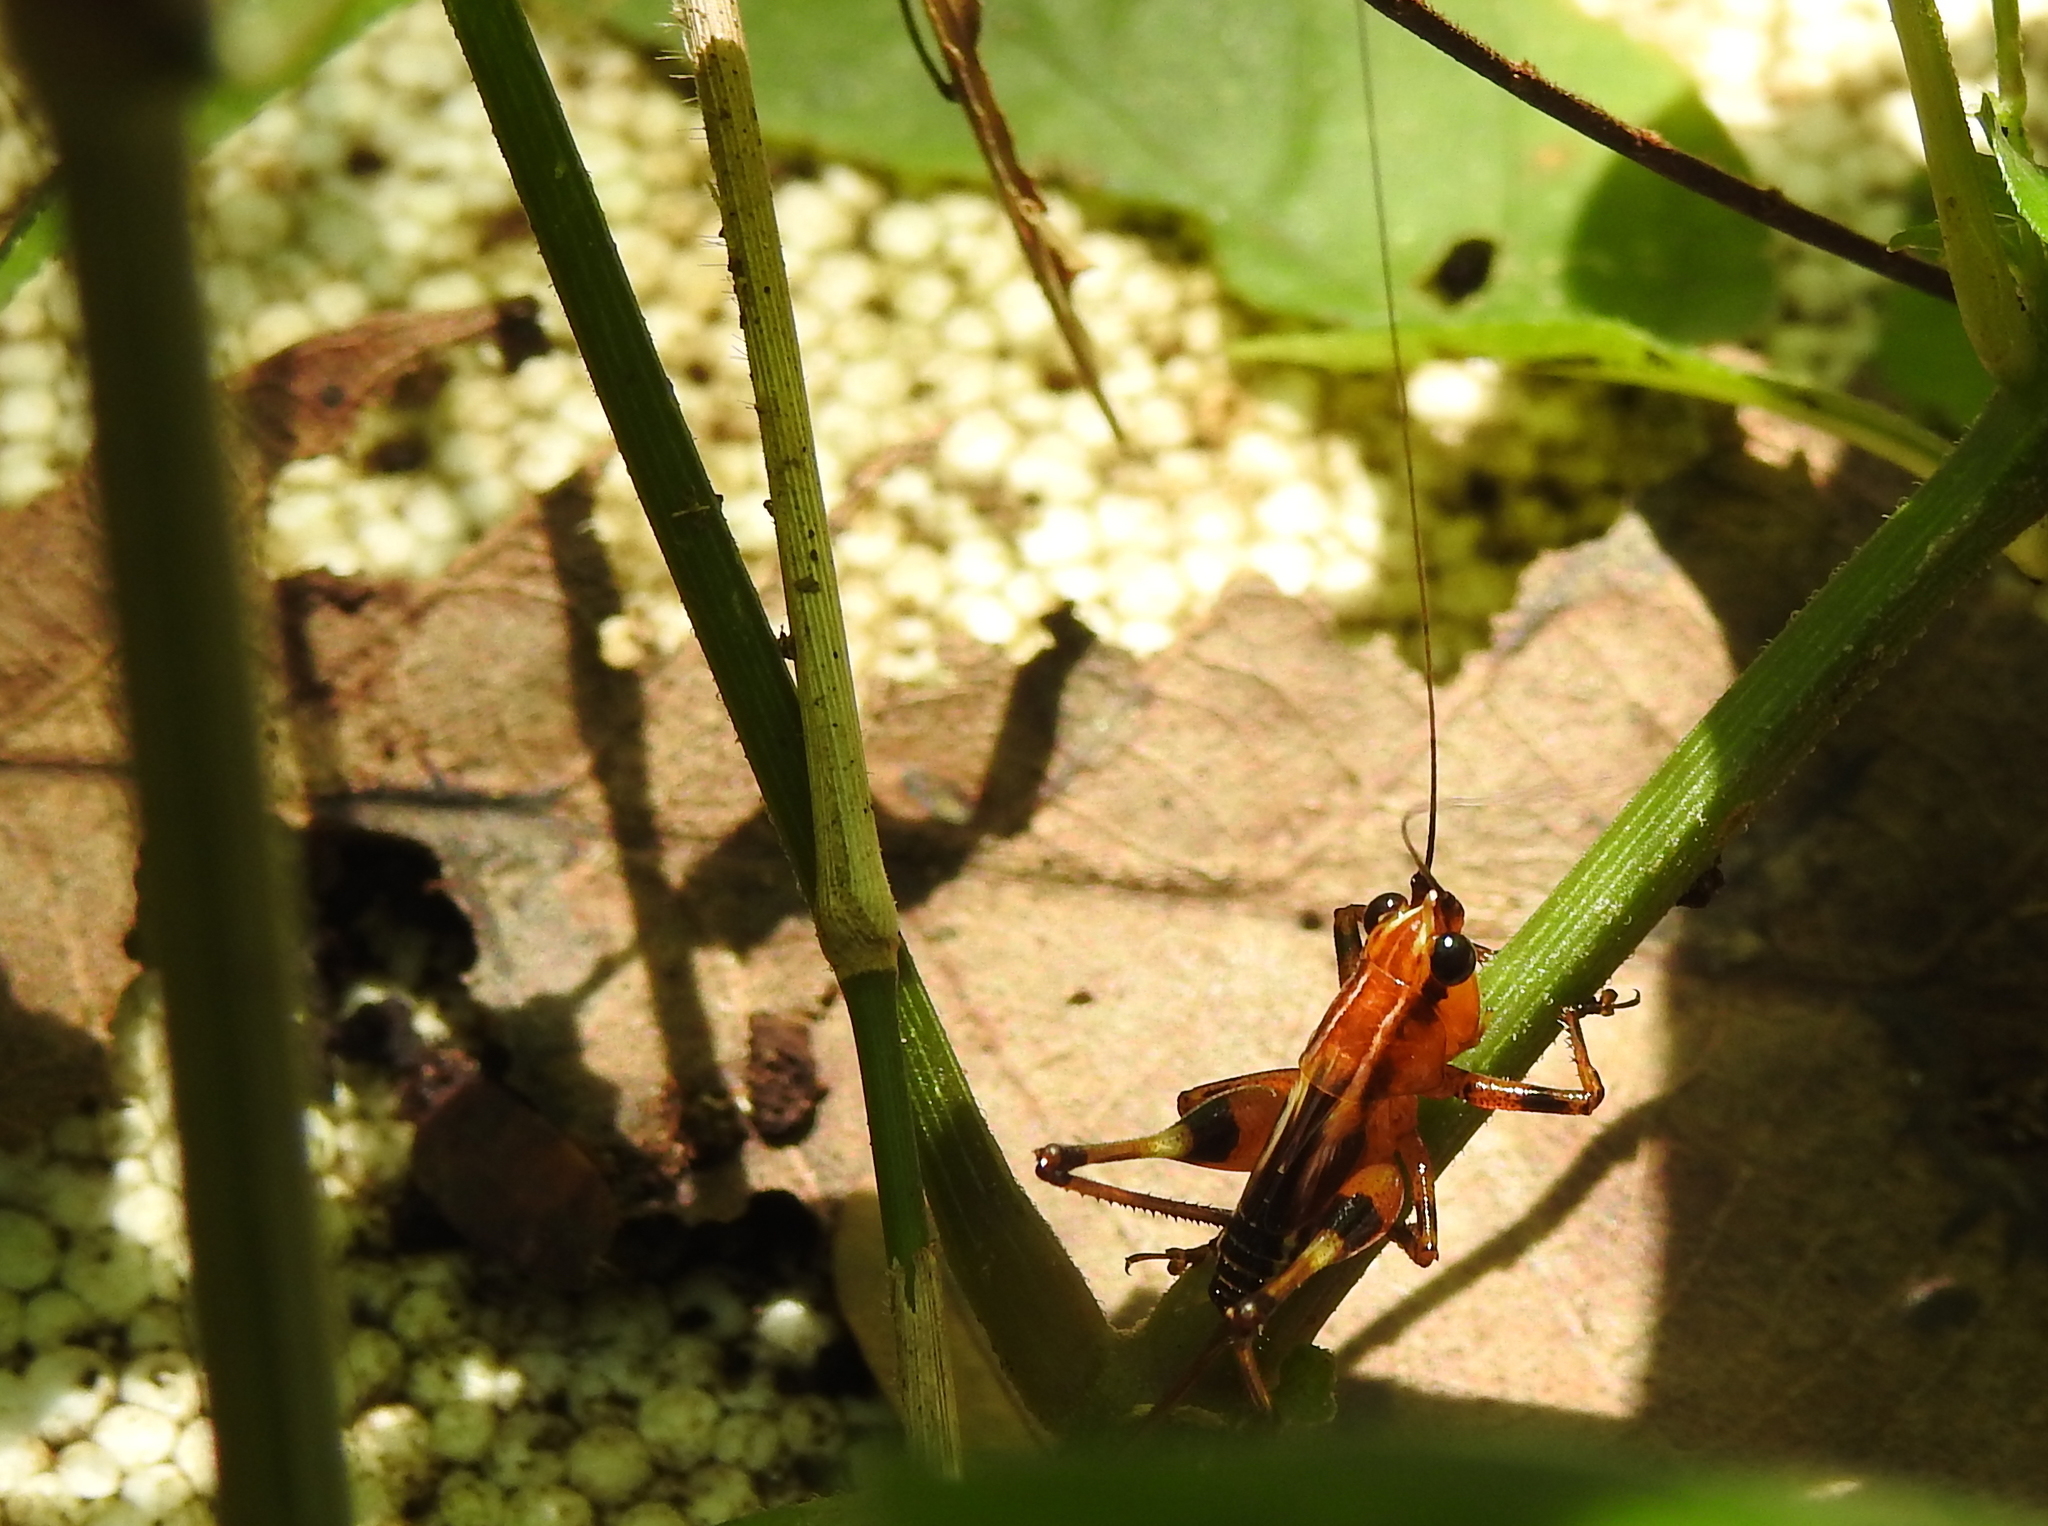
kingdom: Animalia
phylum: Arthropoda
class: Insecta
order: Orthoptera
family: Tettigoniidae
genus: Conocephalus
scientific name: Conocephalus melaenus
